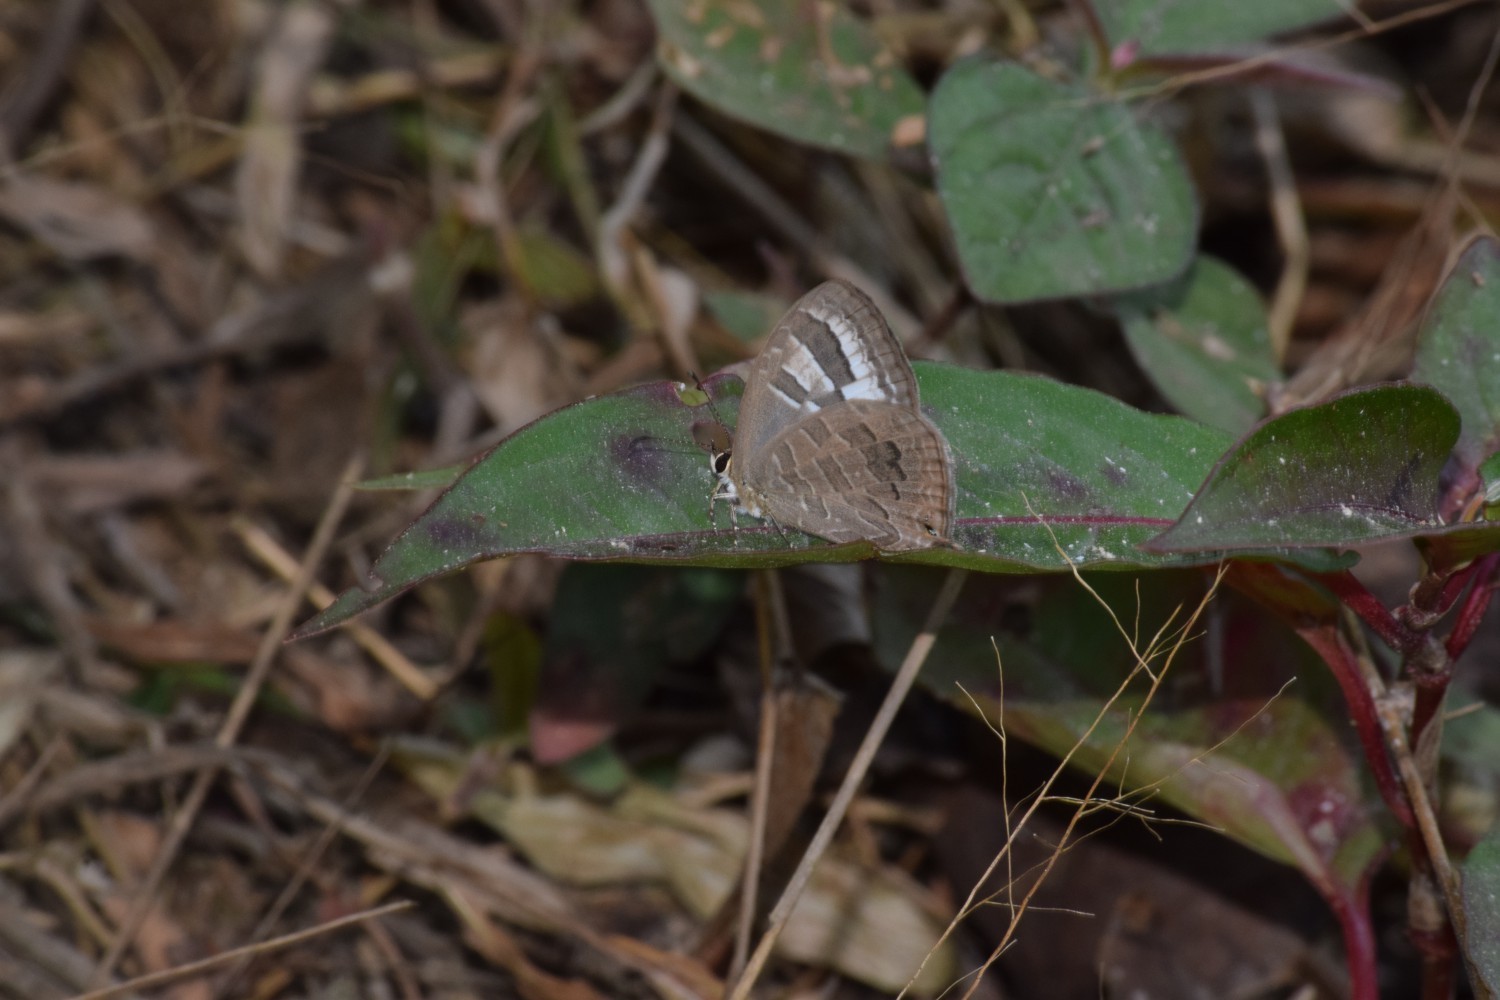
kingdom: Animalia
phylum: Arthropoda
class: Insecta
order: Lepidoptera
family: Lycaenidae
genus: Jamides
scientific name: Jamides pura
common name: White cerulean
